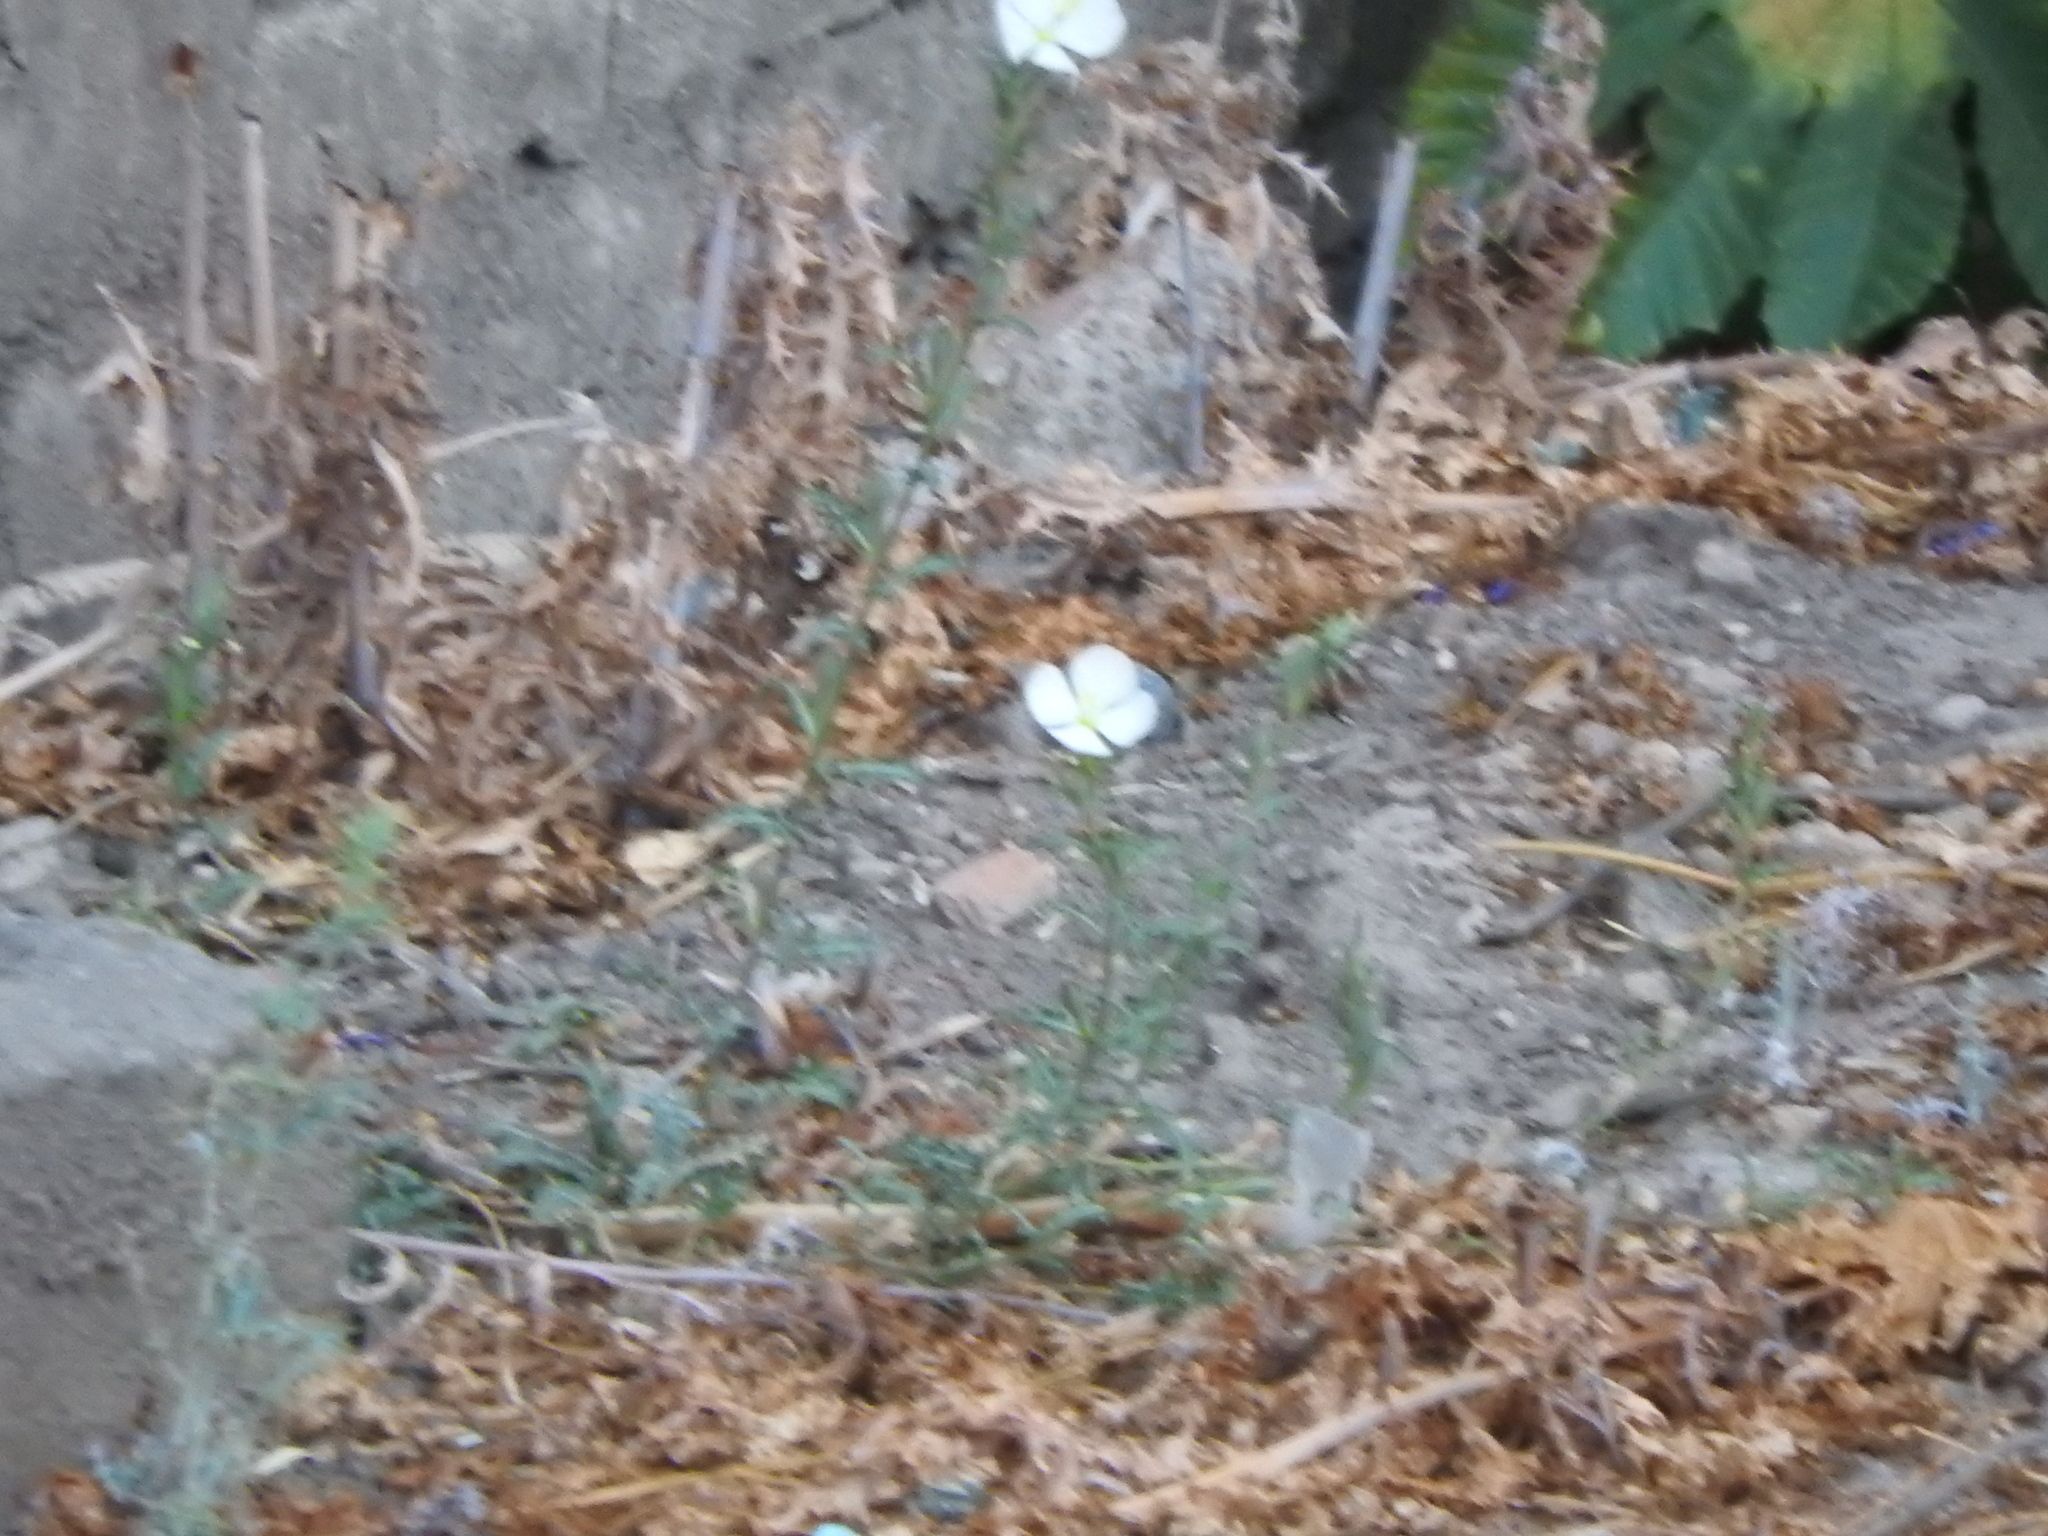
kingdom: Plantae
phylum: Tracheophyta
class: Magnoliopsida
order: Myrtales
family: Onagraceae
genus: Oenothera
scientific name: Oenothera tetraptera
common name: Four-wing evening-primrose
